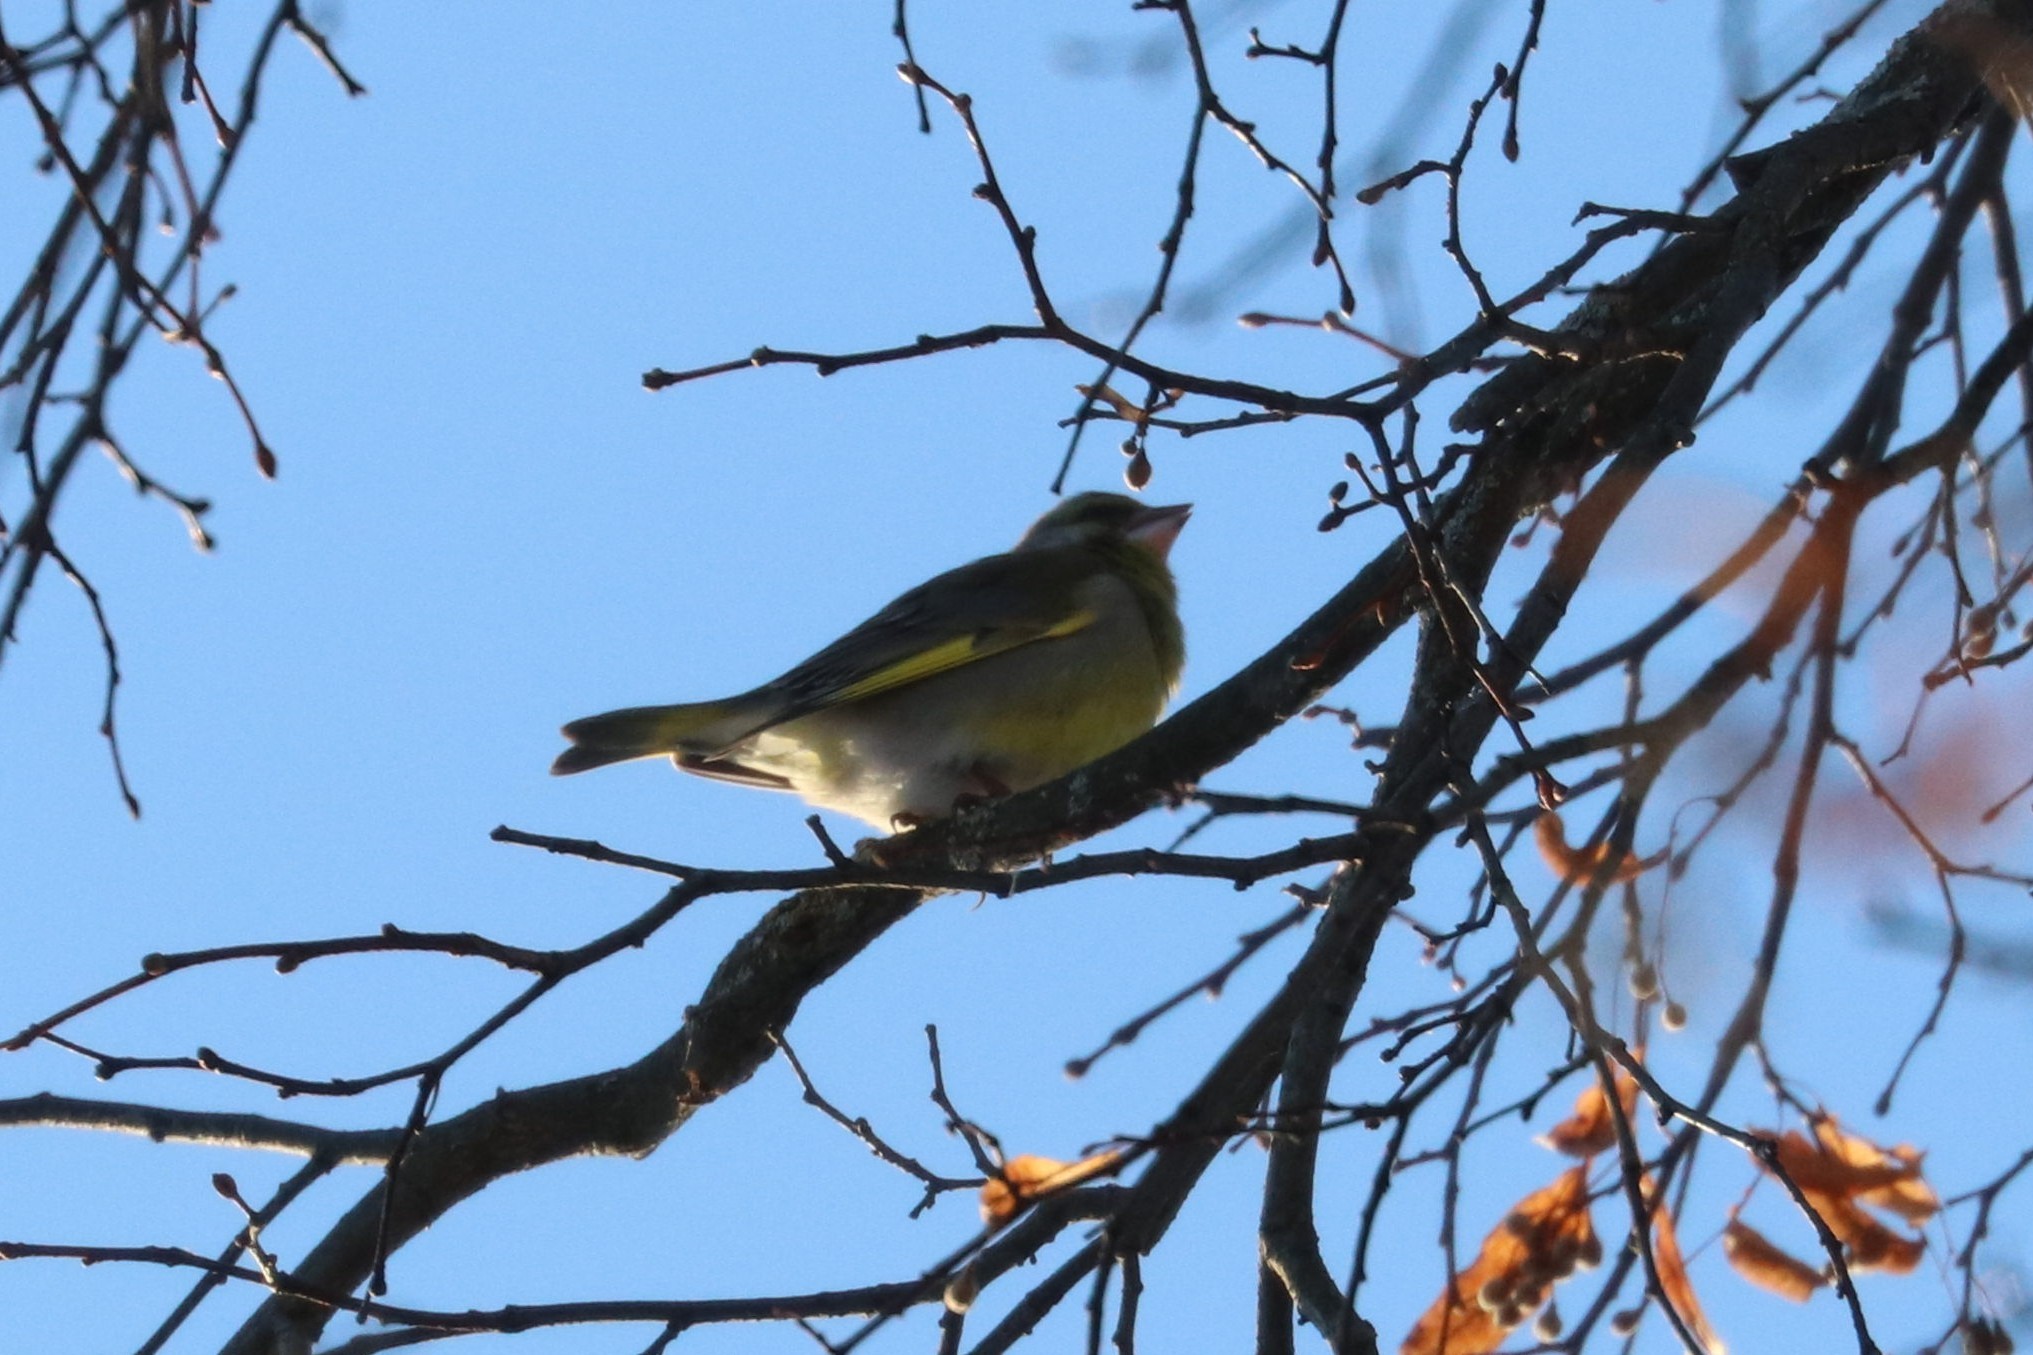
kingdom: Plantae
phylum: Tracheophyta
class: Liliopsida
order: Poales
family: Poaceae
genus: Chloris
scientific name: Chloris chloris
